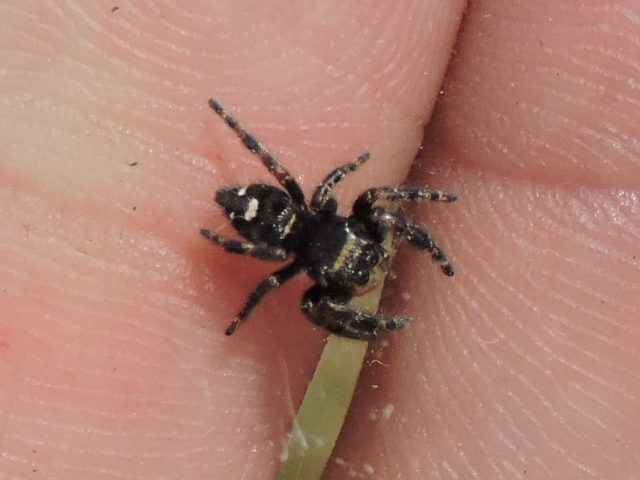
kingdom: Animalia
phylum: Arthropoda
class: Arachnida
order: Araneae
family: Salticidae
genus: Phidippus
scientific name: Phidippus audax
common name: Bold jumper
